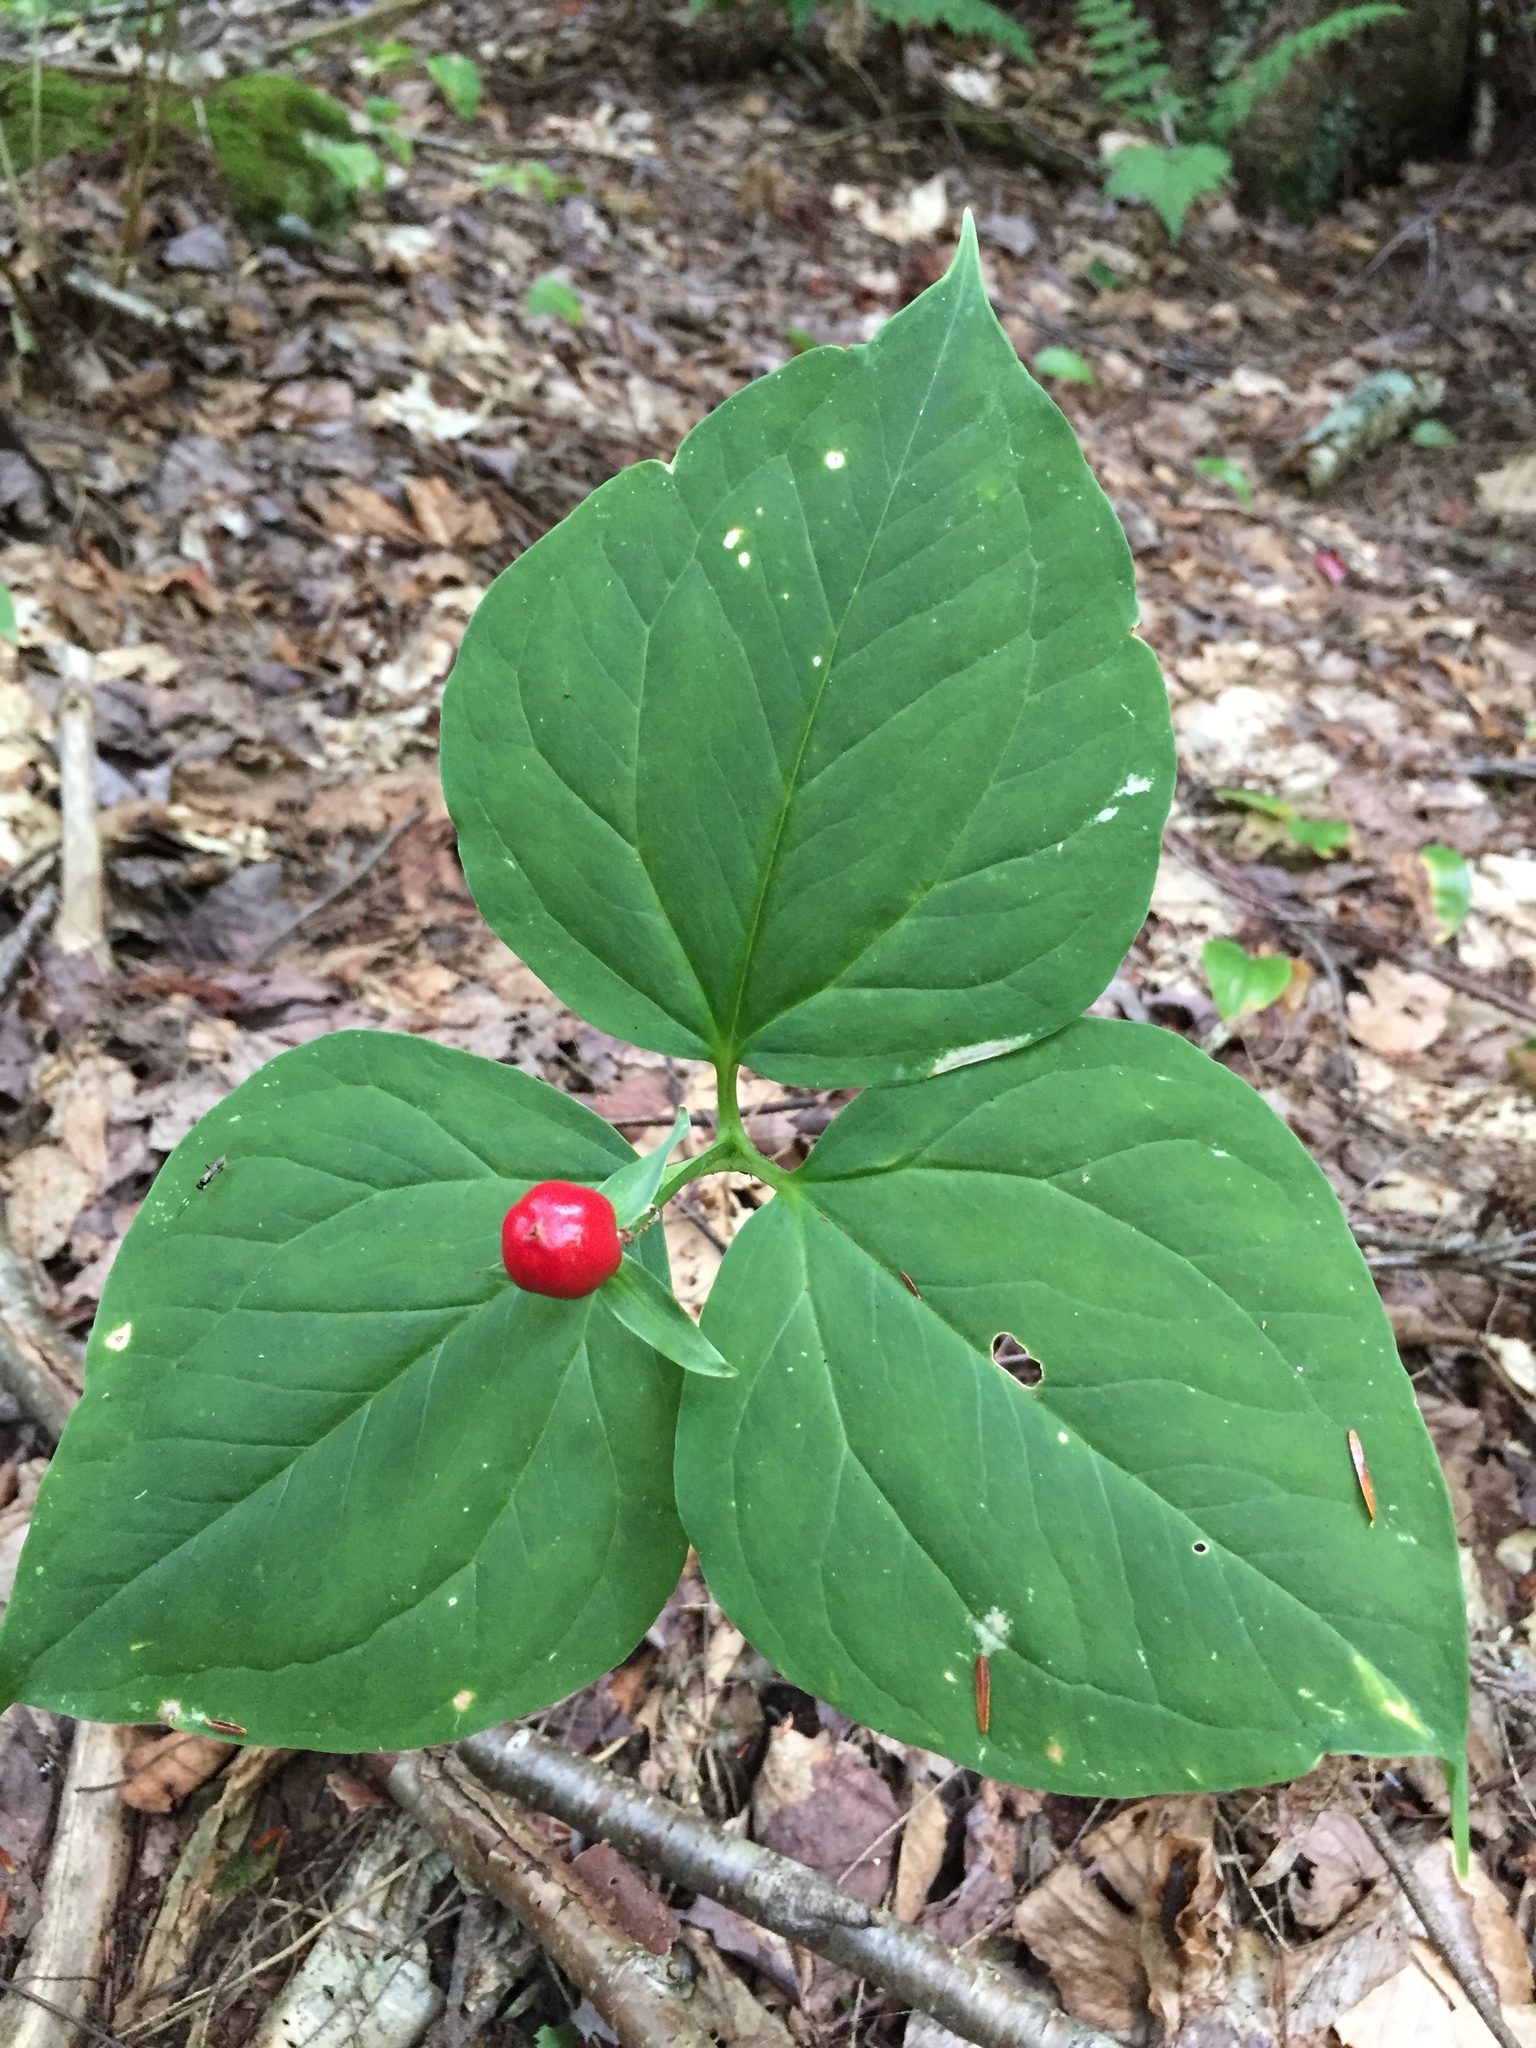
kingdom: Plantae
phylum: Tracheophyta
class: Liliopsida
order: Liliales
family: Melanthiaceae
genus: Trillium
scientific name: Trillium undulatum
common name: Paint trillium
